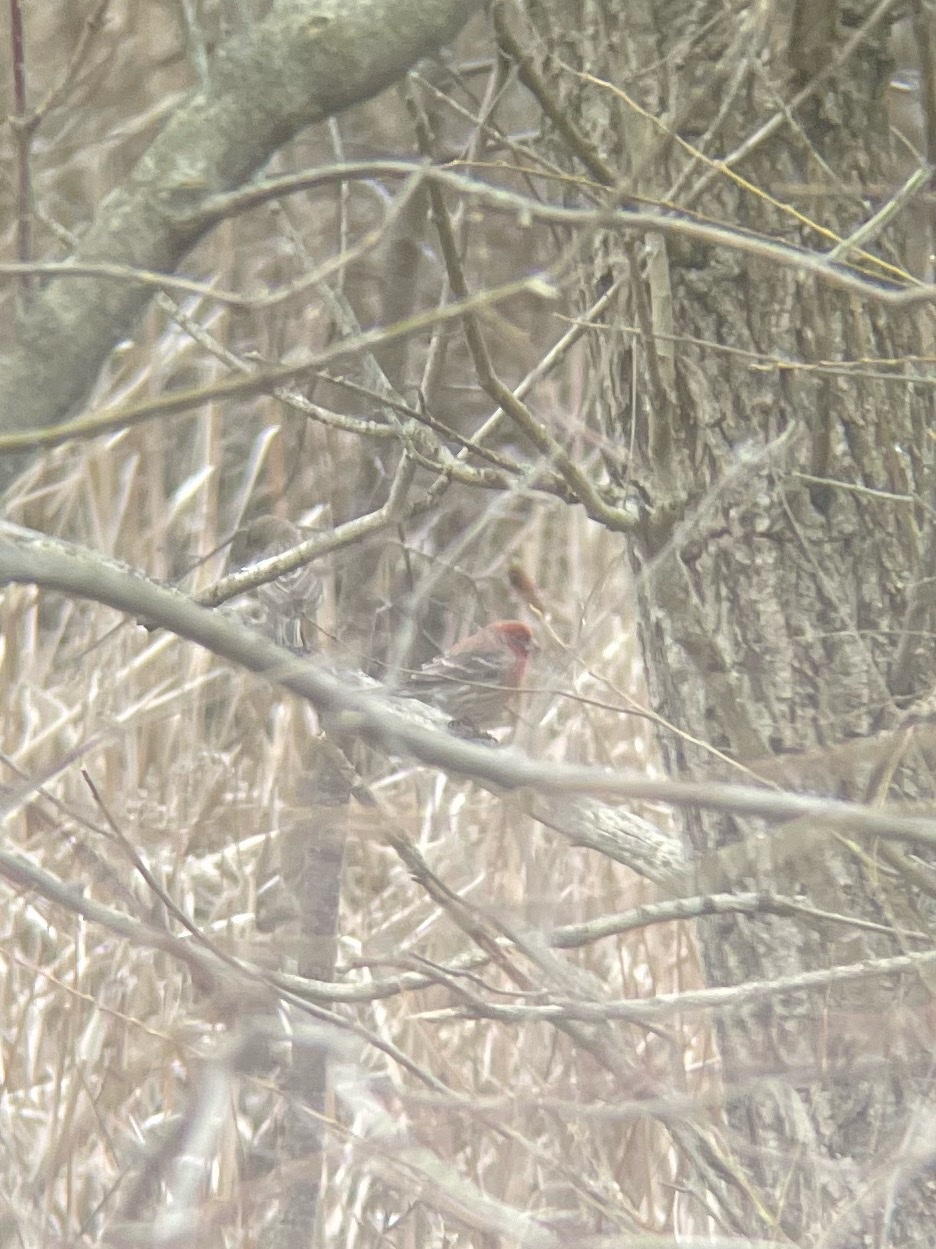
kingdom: Animalia
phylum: Chordata
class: Aves
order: Passeriformes
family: Fringillidae
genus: Haemorhous
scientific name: Haemorhous mexicanus
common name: House finch
